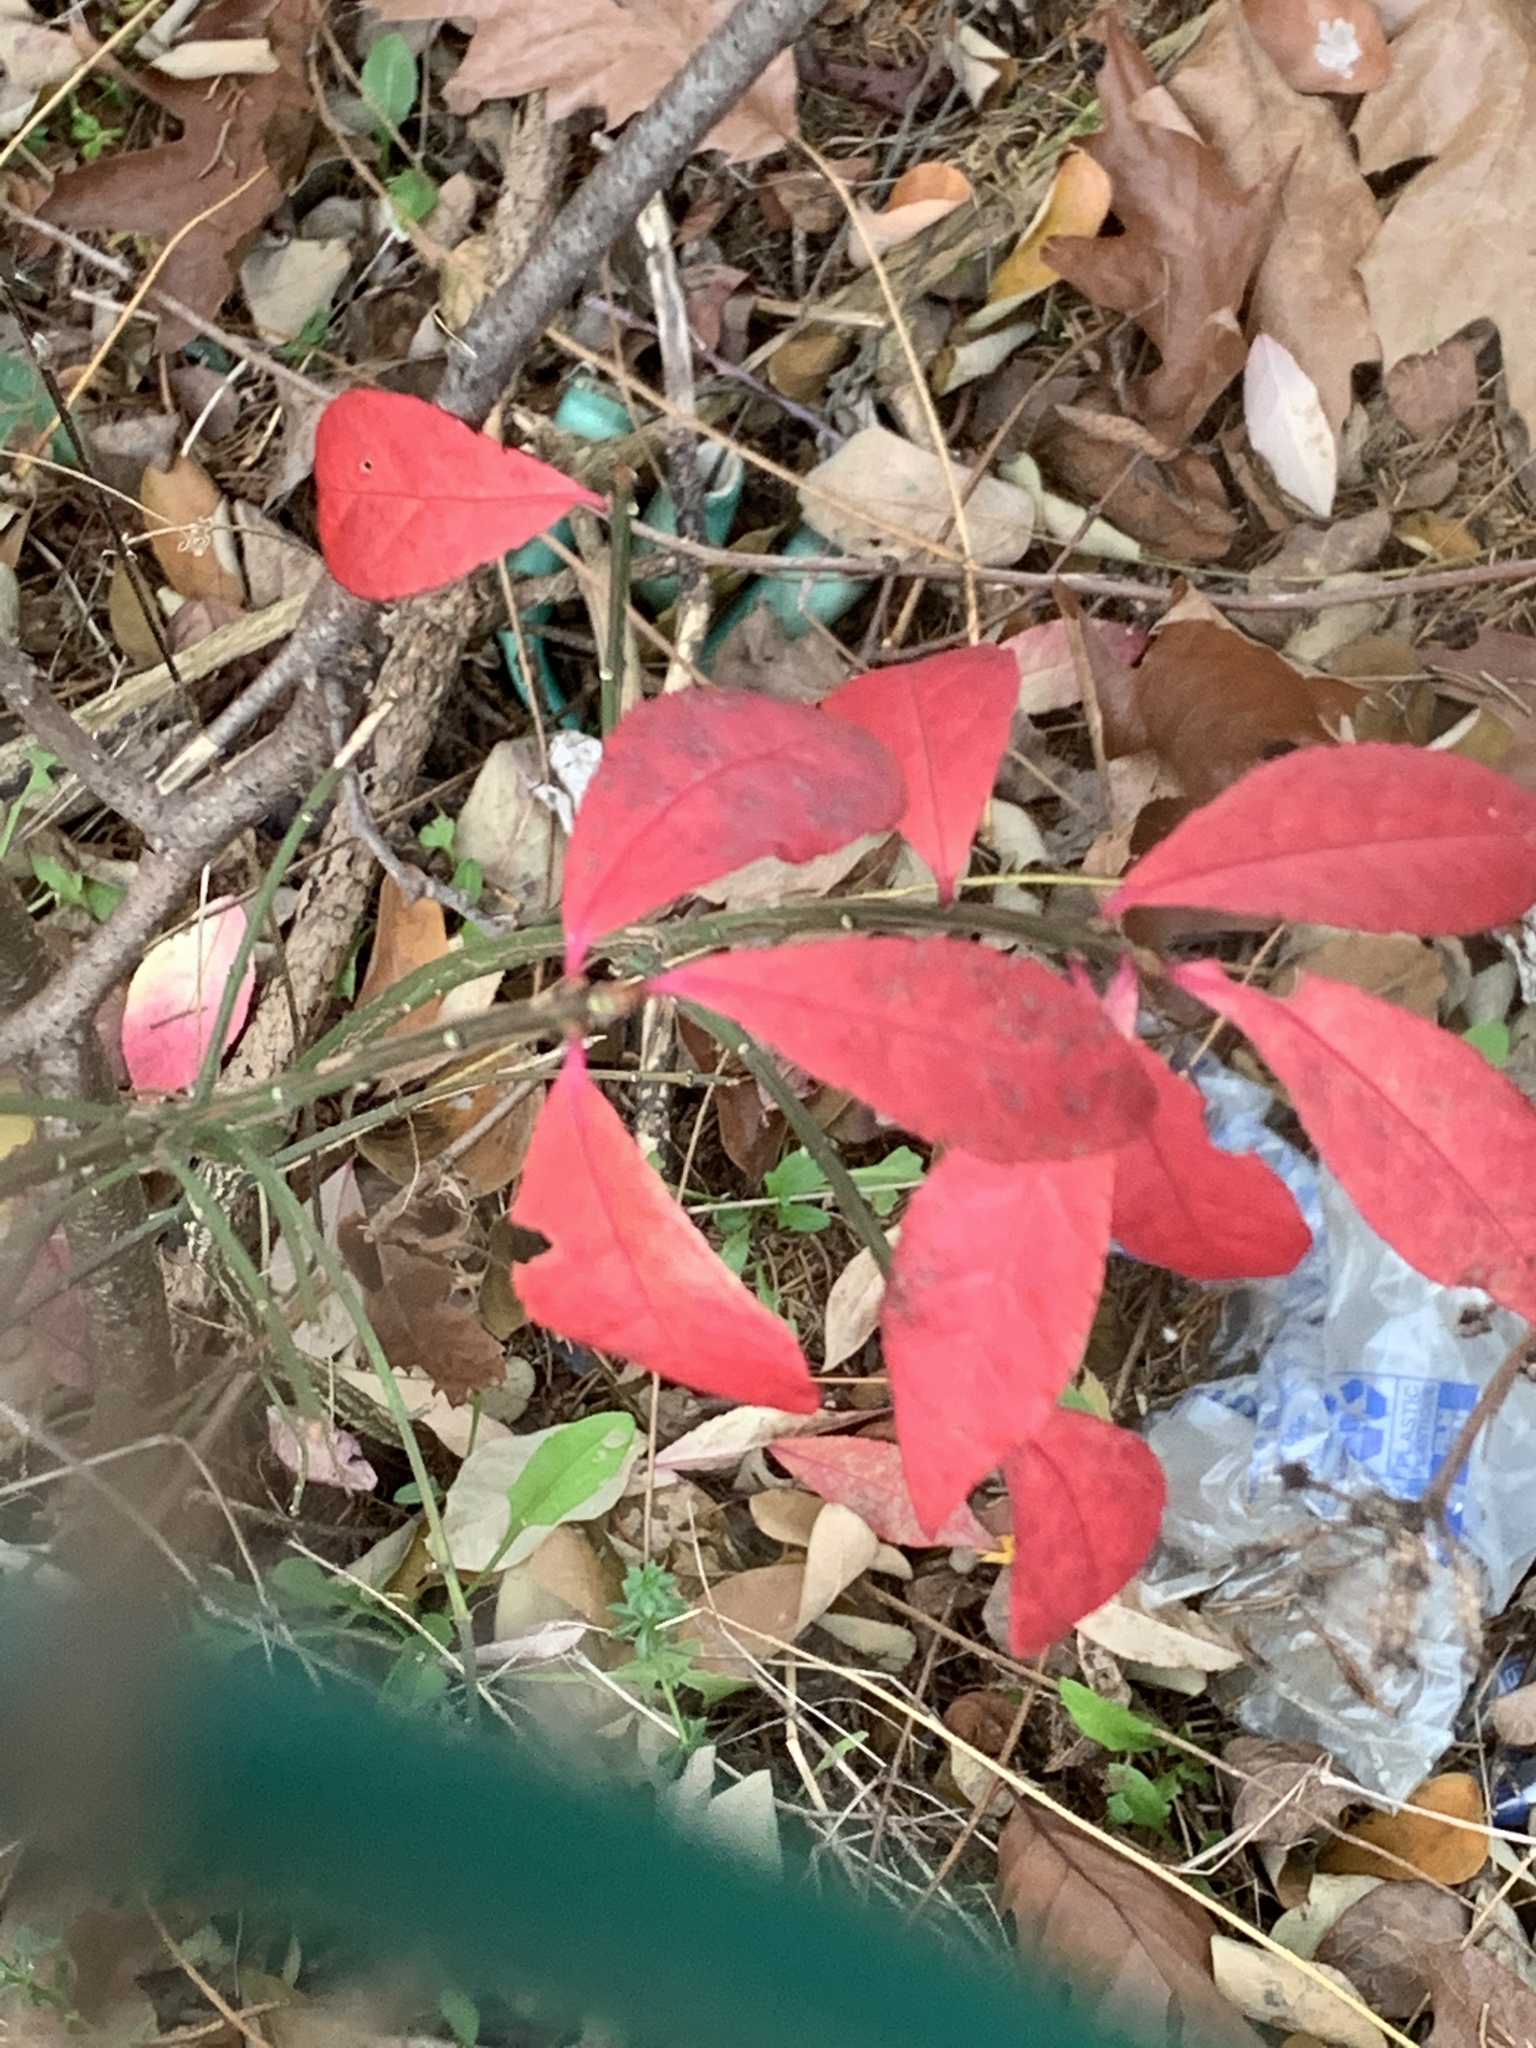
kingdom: Plantae
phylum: Tracheophyta
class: Magnoliopsida
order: Celastrales
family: Celastraceae
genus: Euonymus
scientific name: Euonymus alatus
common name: Winged euonymus
